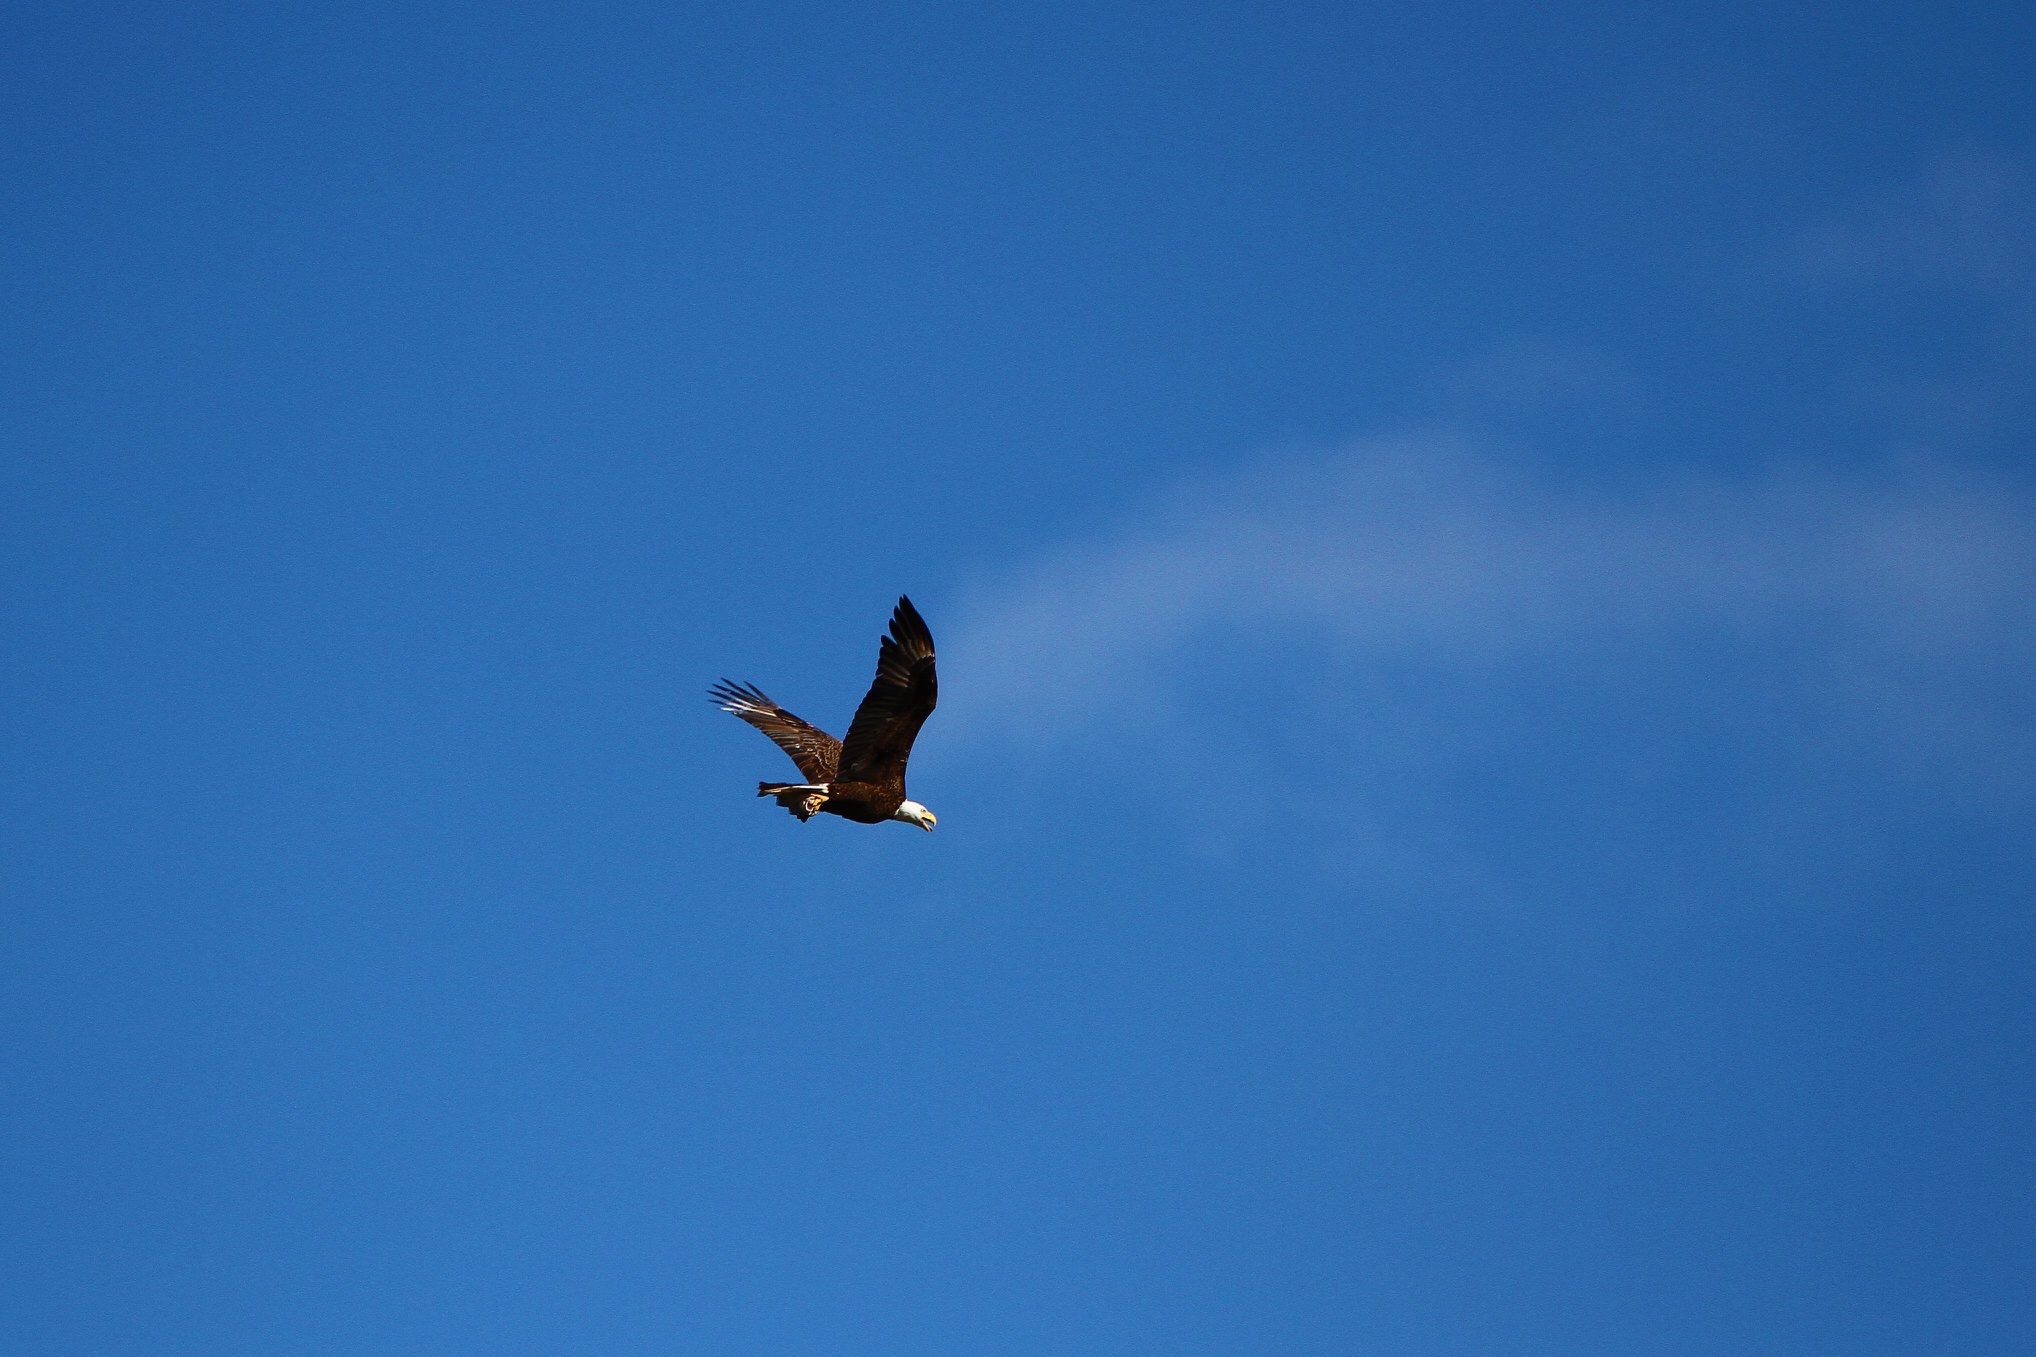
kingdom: Animalia
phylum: Chordata
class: Aves
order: Accipitriformes
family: Accipitridae
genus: Haliaeetus
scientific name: Haliaeetus leucocephalus
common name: Bald eagle
